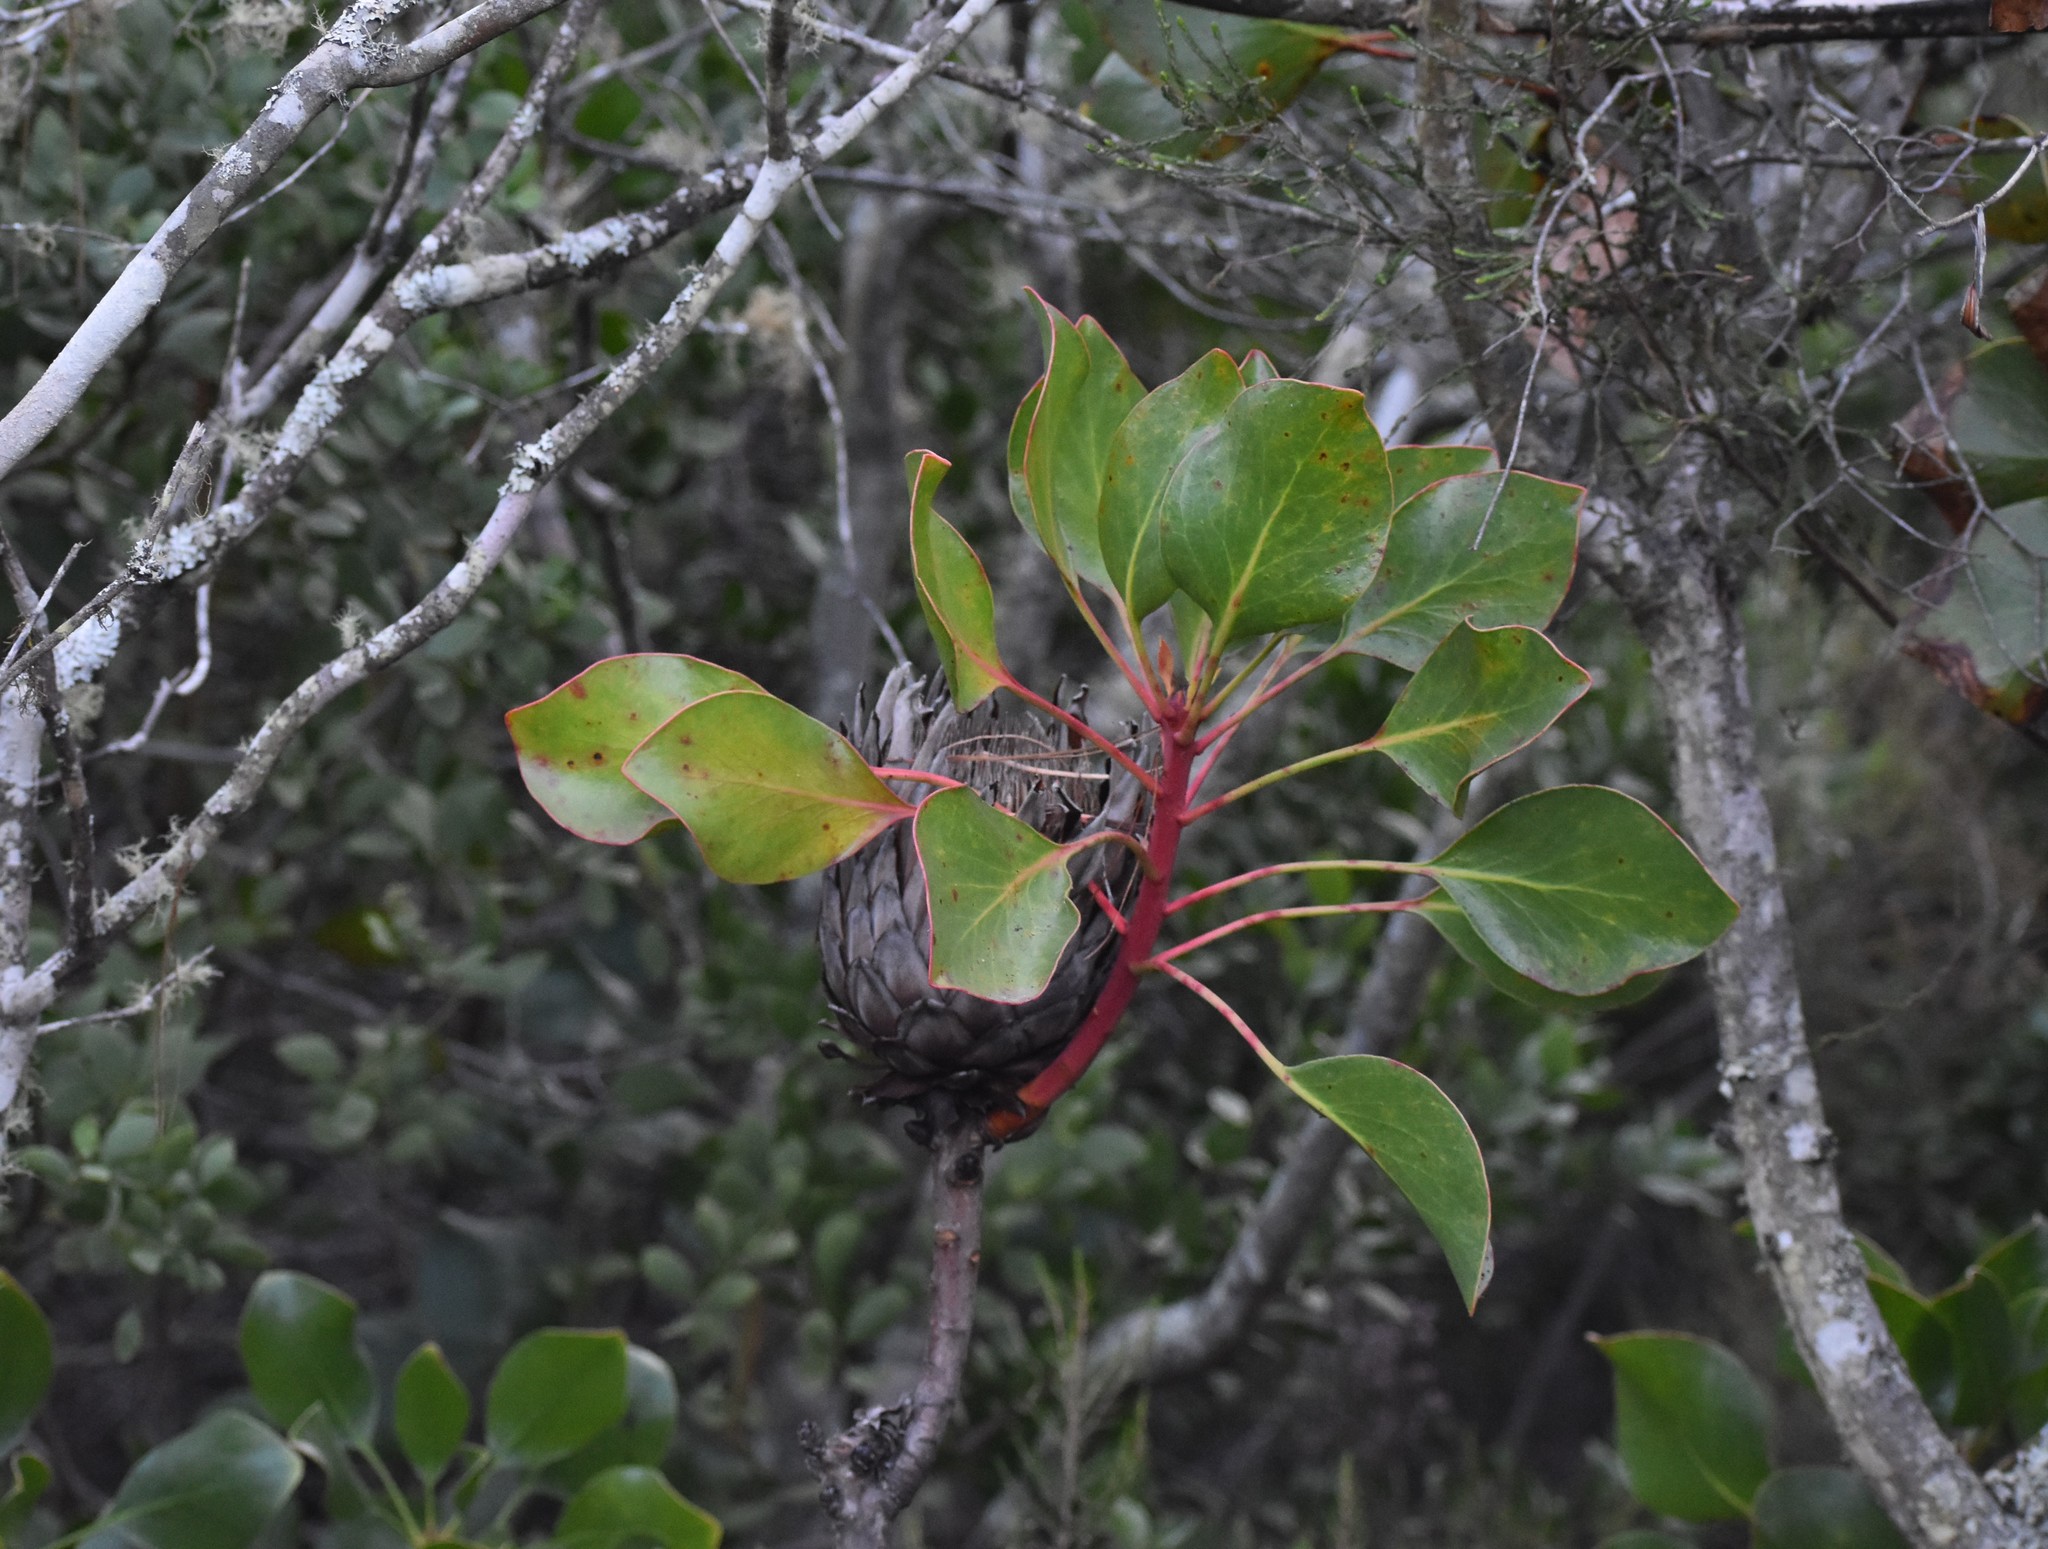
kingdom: Plantae
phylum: Tracheophyta
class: Magnoliopsida
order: Proteales
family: Proteaceae
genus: Protea
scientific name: Protea cynaroides
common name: King protea
